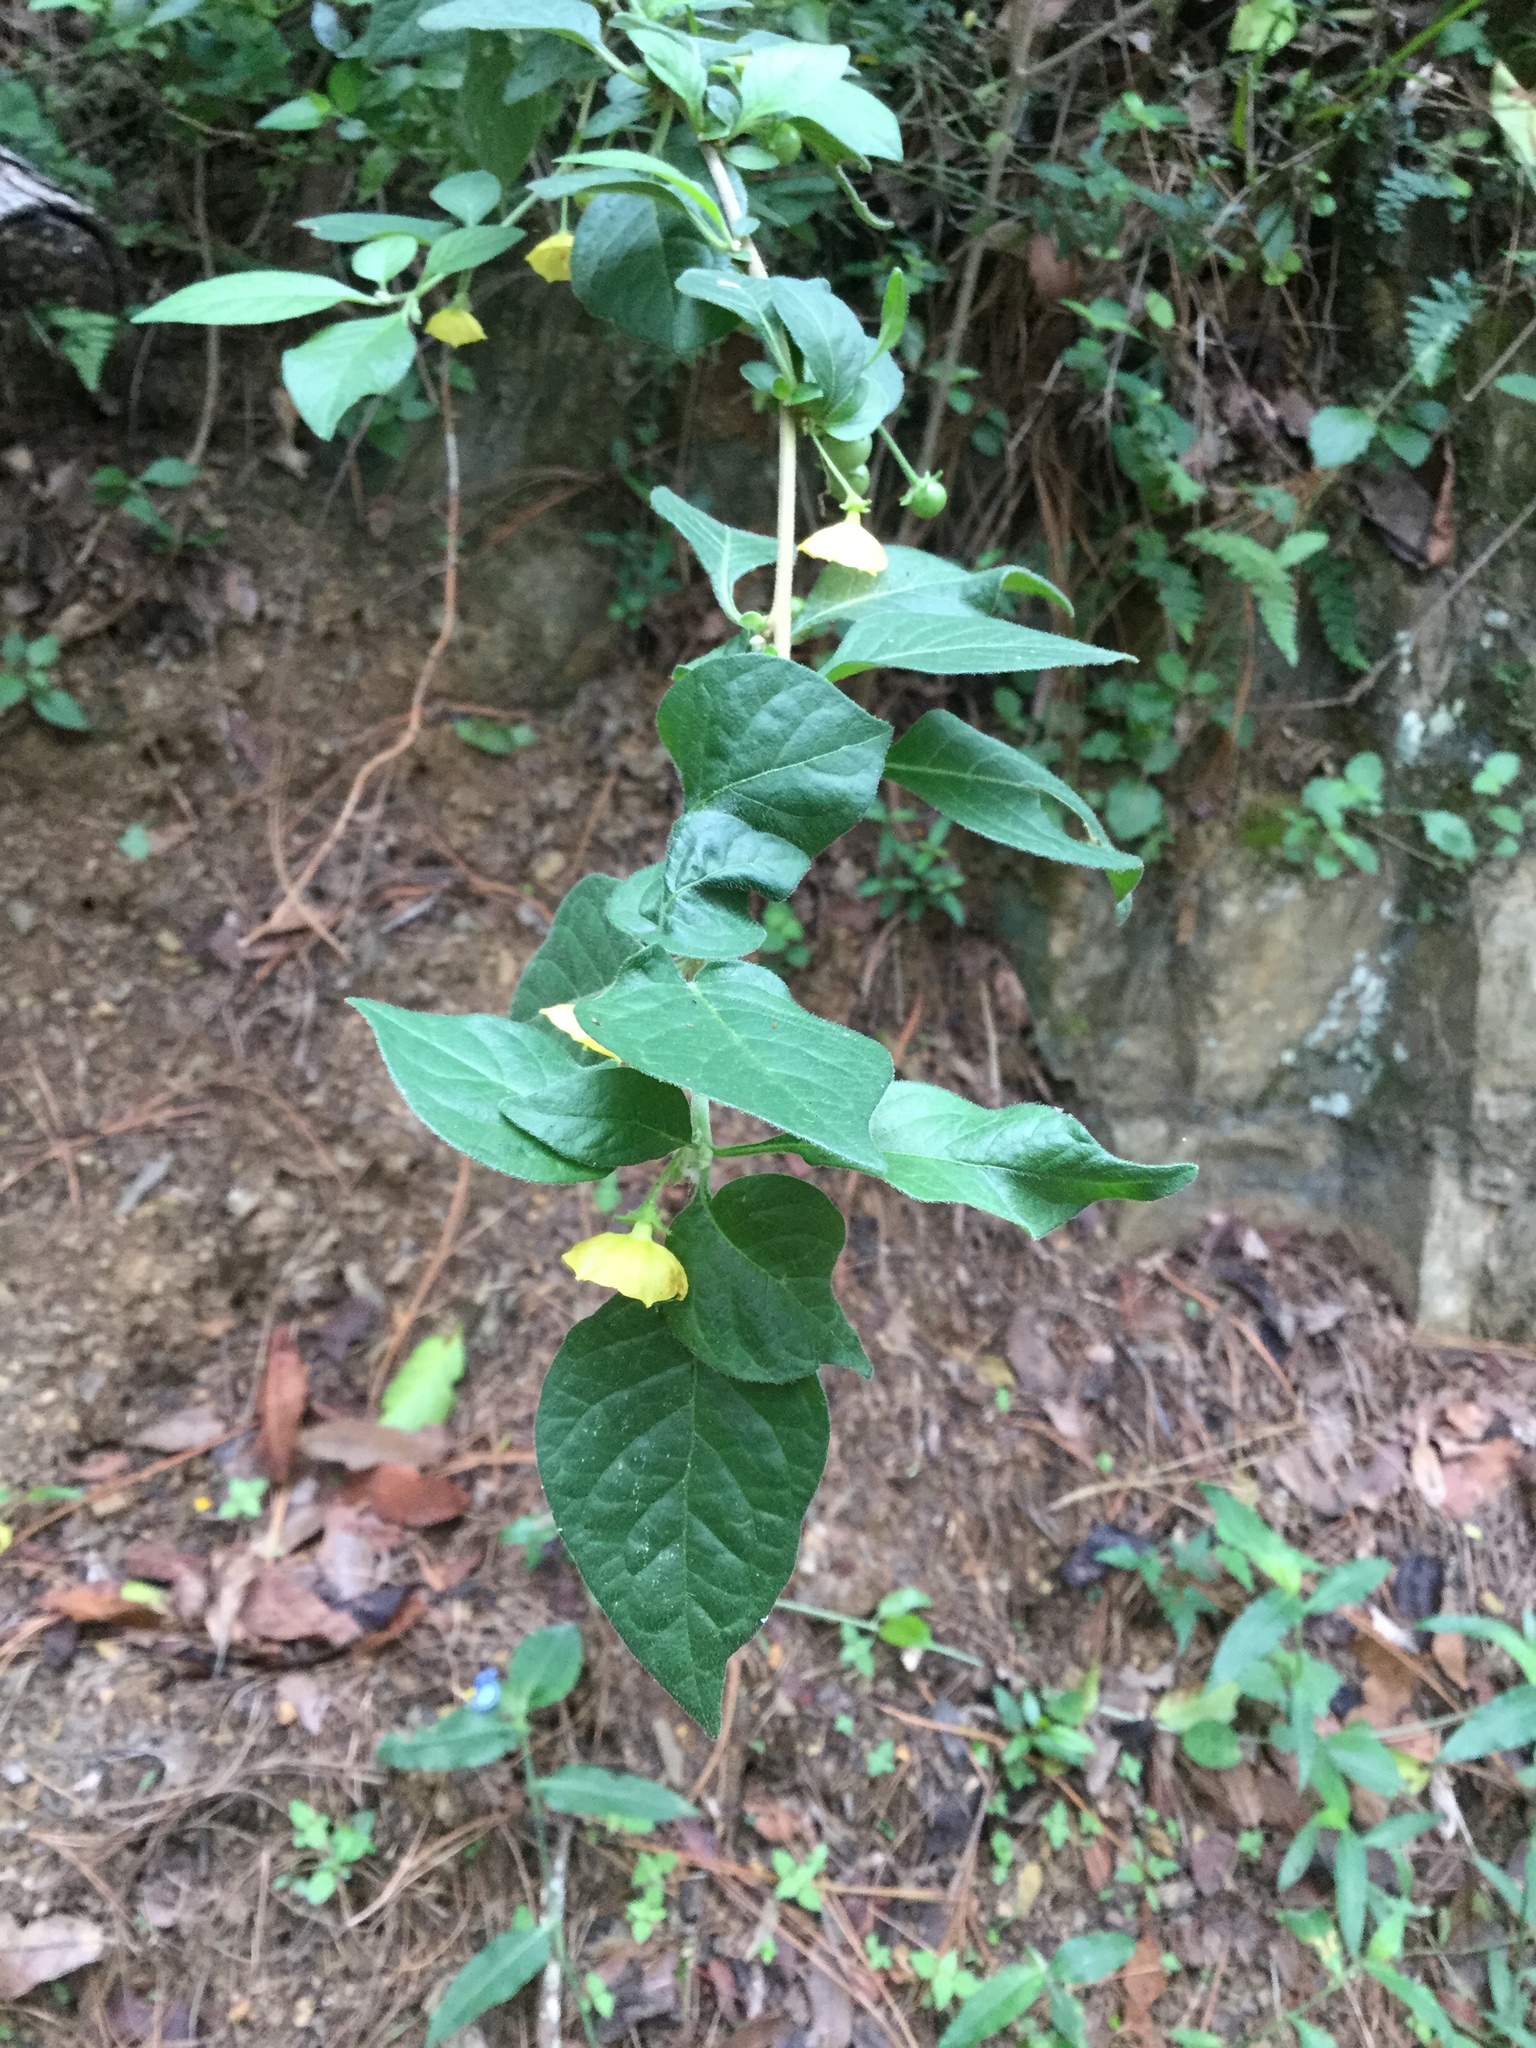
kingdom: Plantae
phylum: Tracheophyta
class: Magnoliopsida
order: Solanales
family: Solanaceae
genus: Capsicum
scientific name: Capsicum rhomboideum
